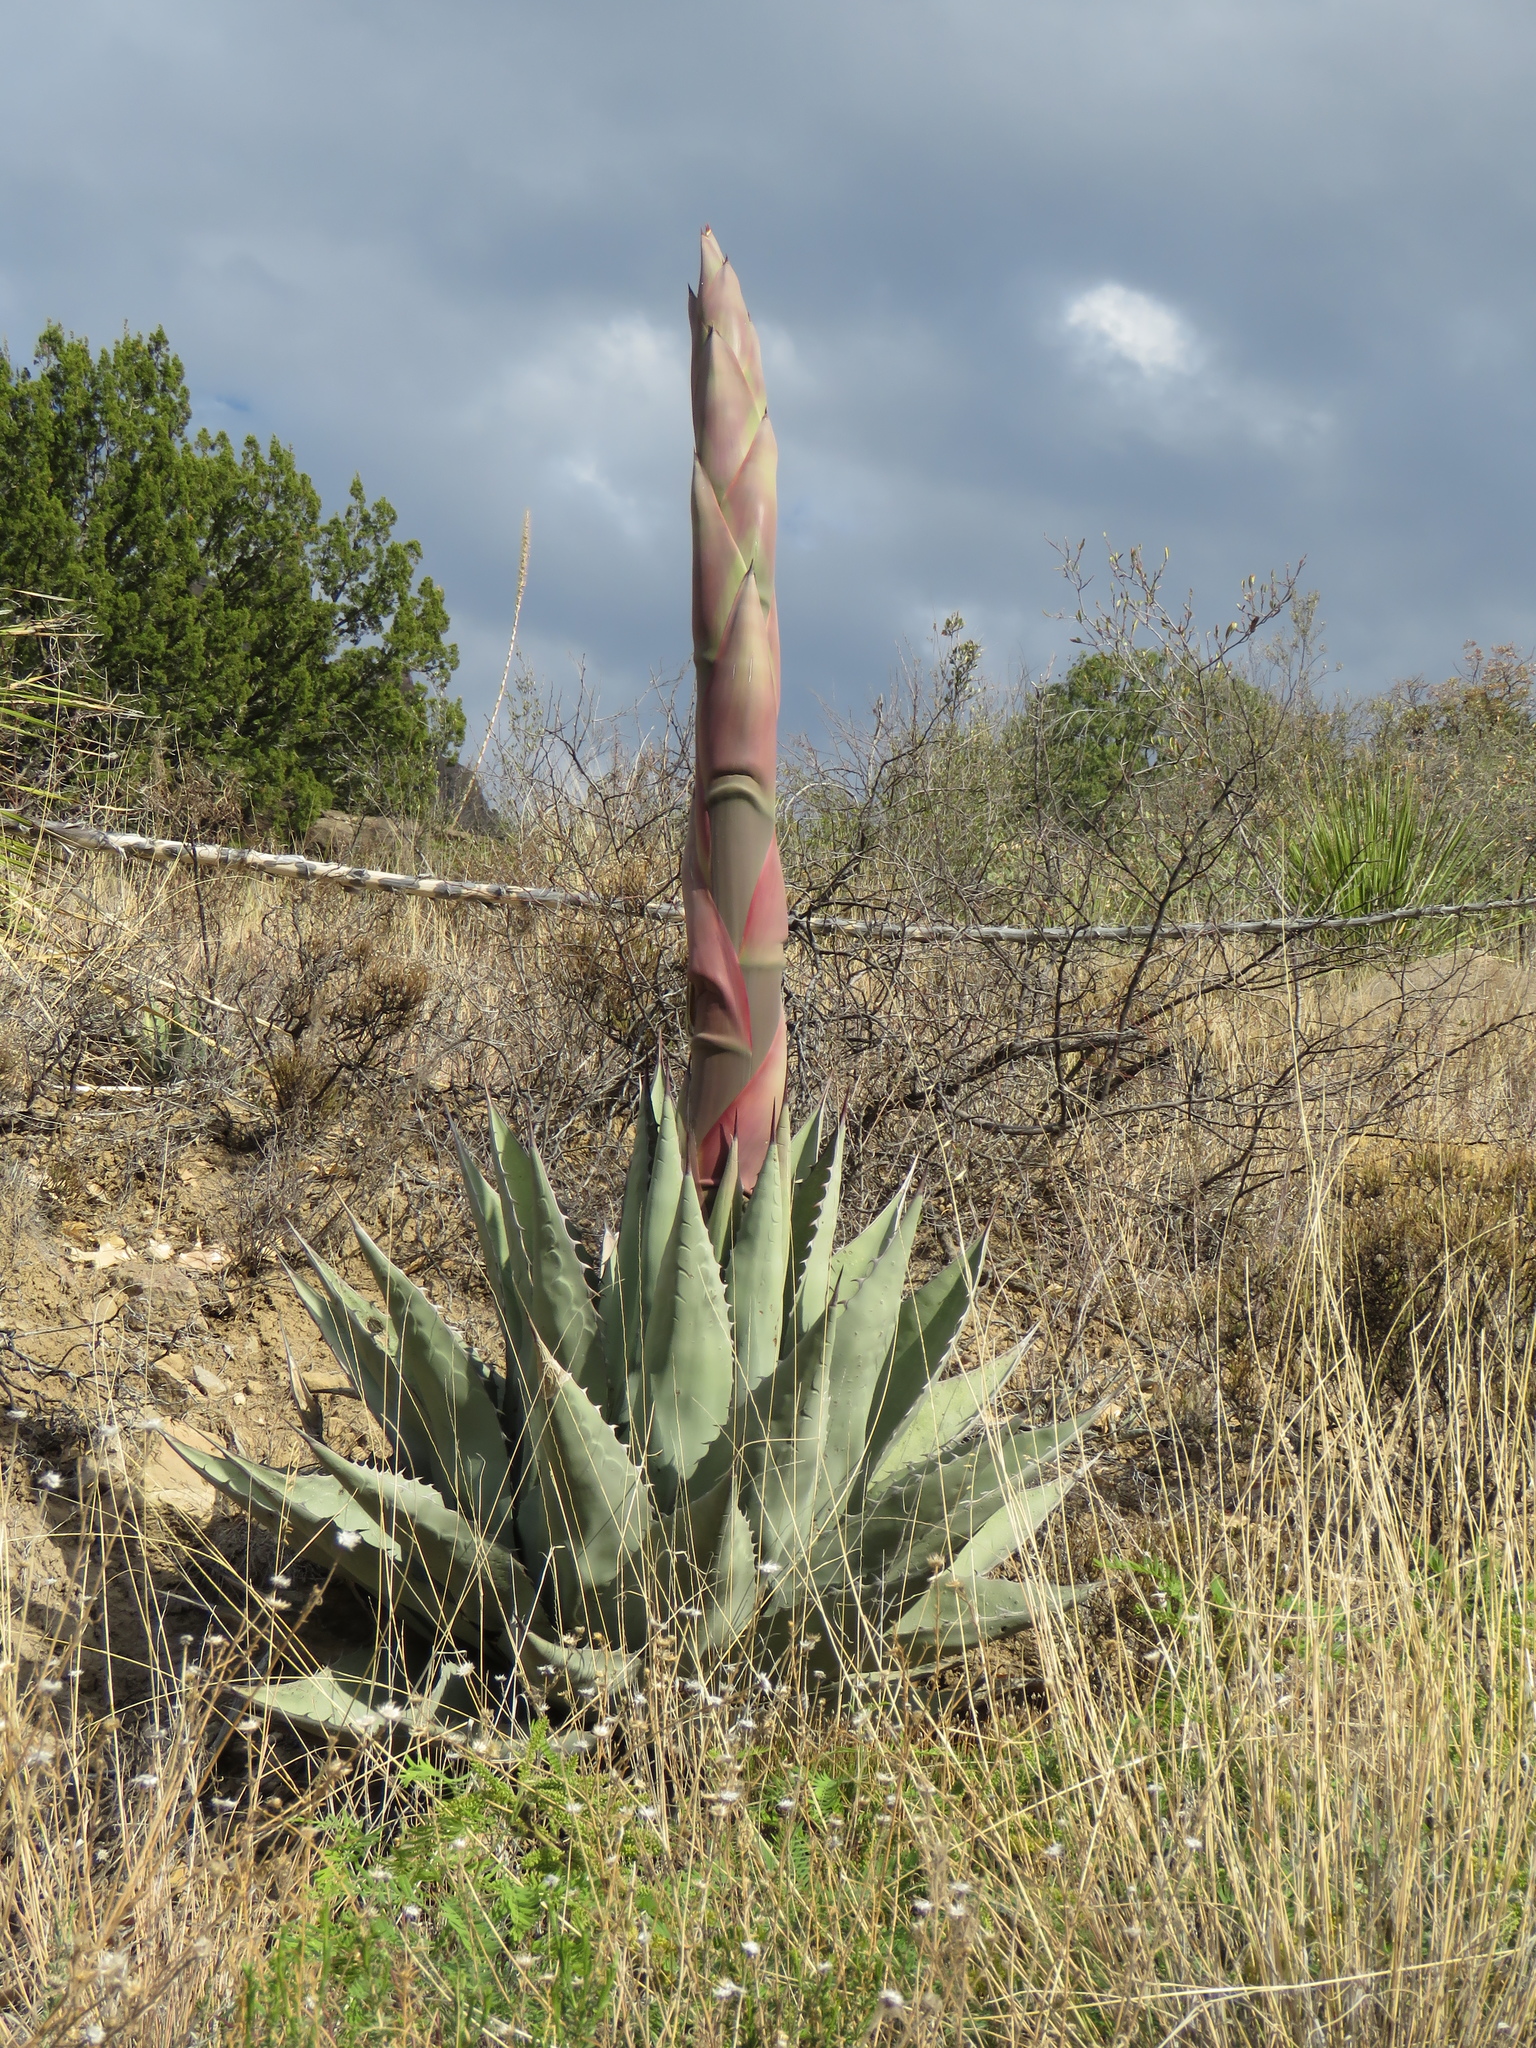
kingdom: Plantae
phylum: Tracheophyta
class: Liliopsida
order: Asparagales
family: Asparagaceae
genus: Agave
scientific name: Agave havardiana
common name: Havard agave
